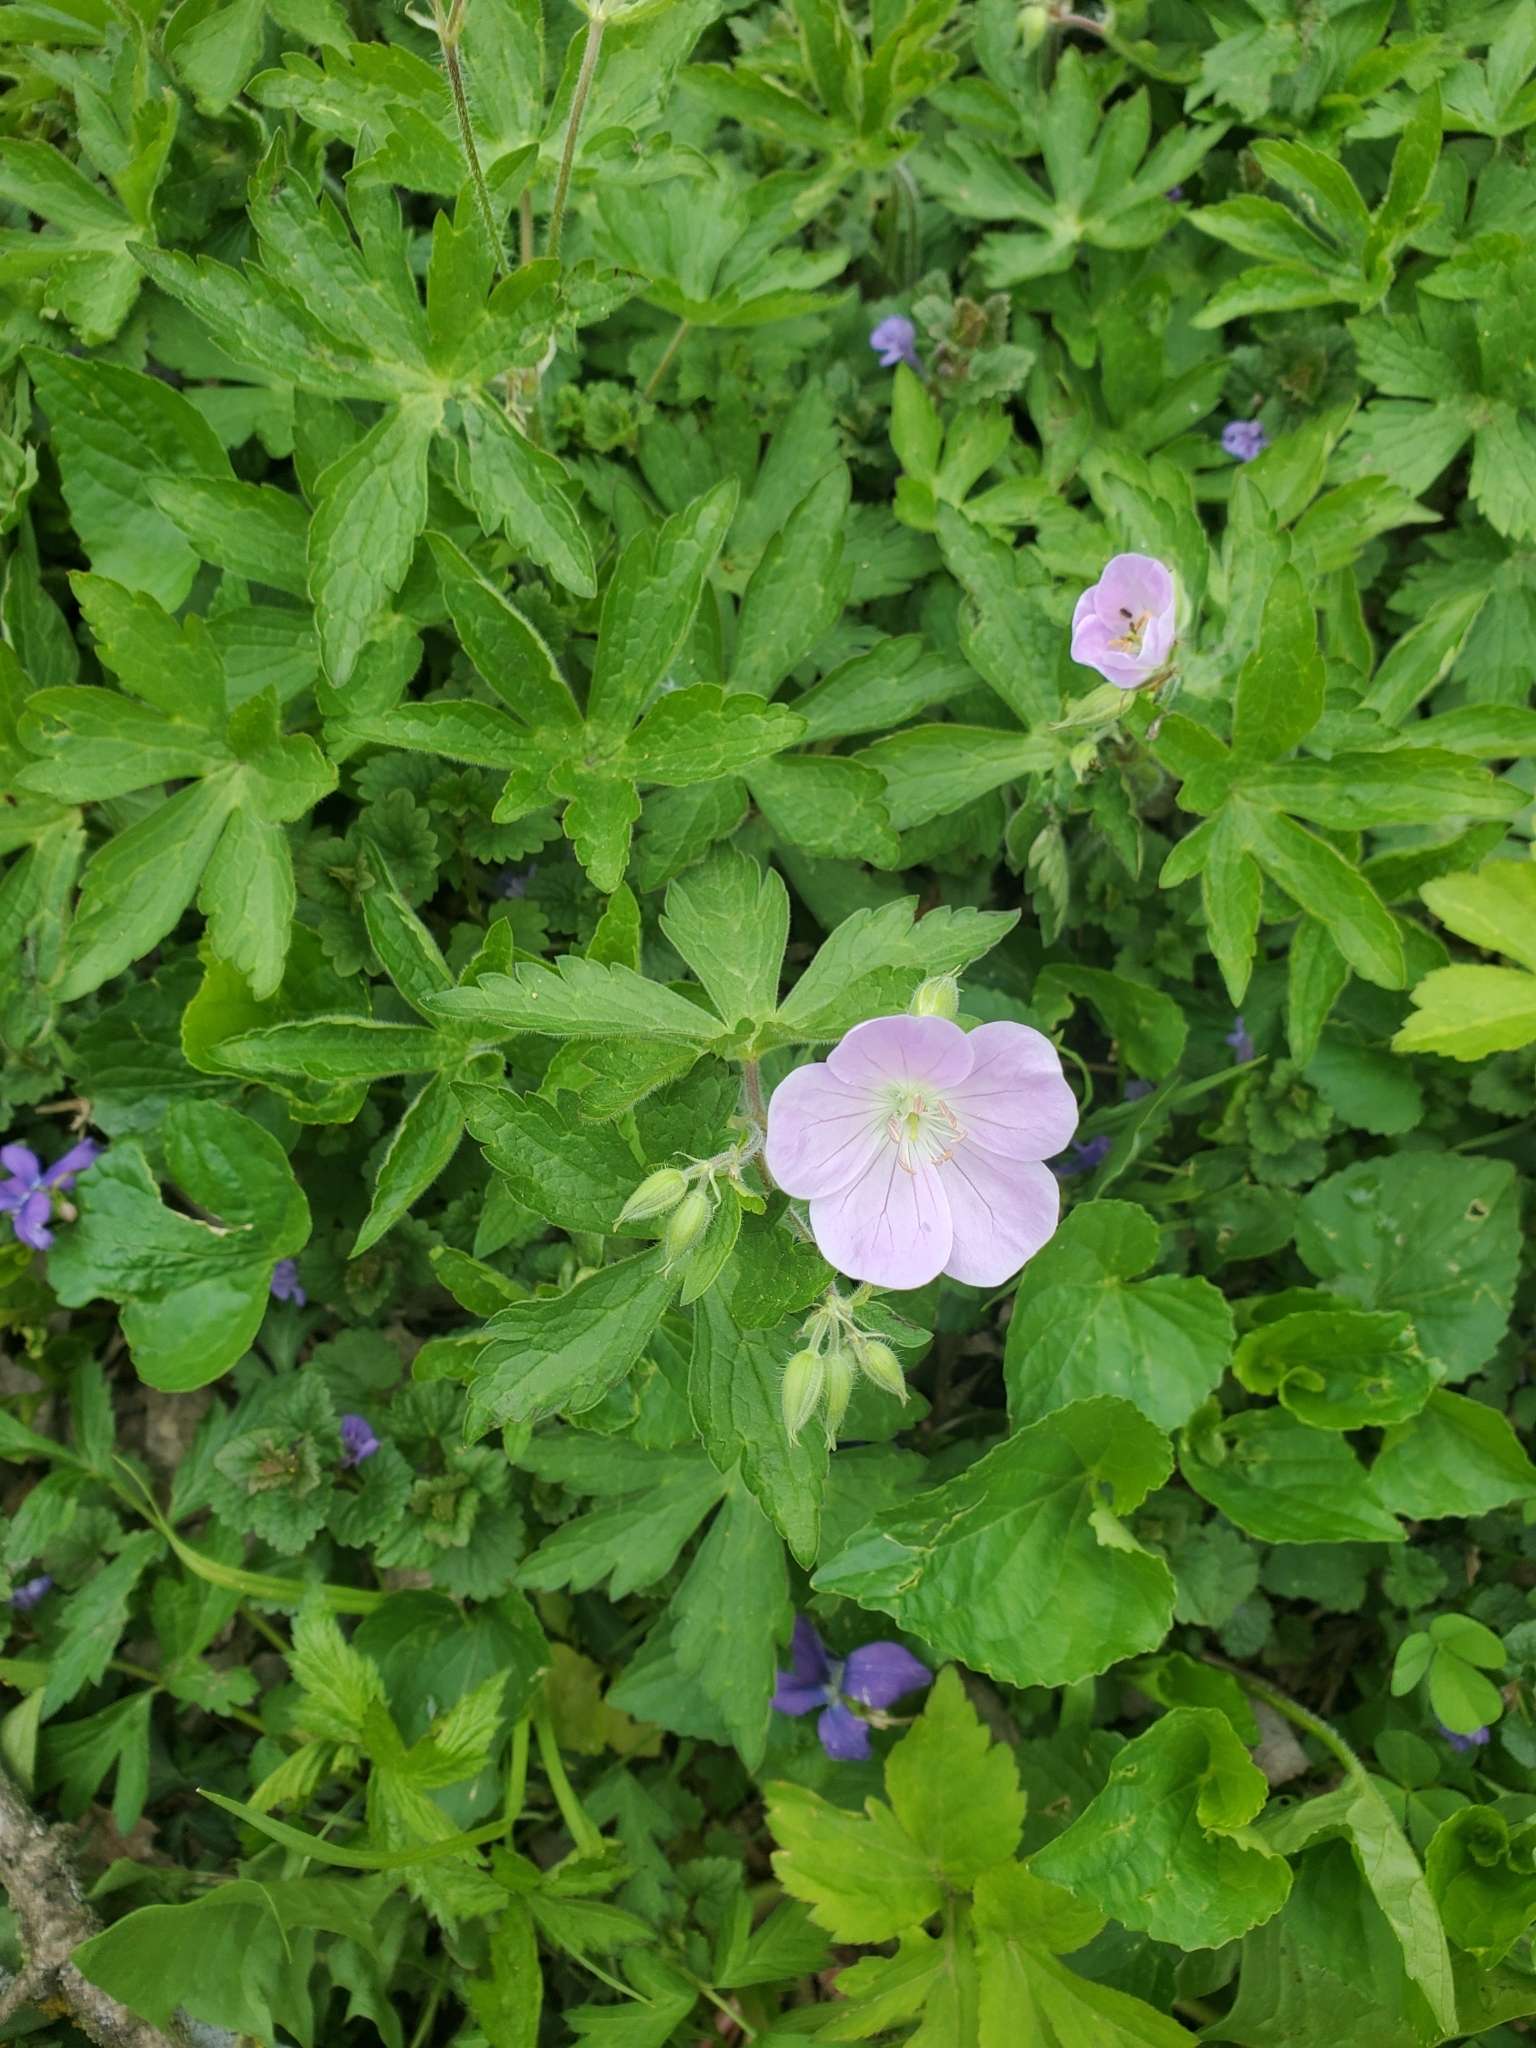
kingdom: Plantae
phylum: Tracheophyta
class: Magnoliopsida
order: Geraniales
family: Geraniaceae
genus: Geranium
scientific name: Geranium maculatum
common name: Spotted geranium
